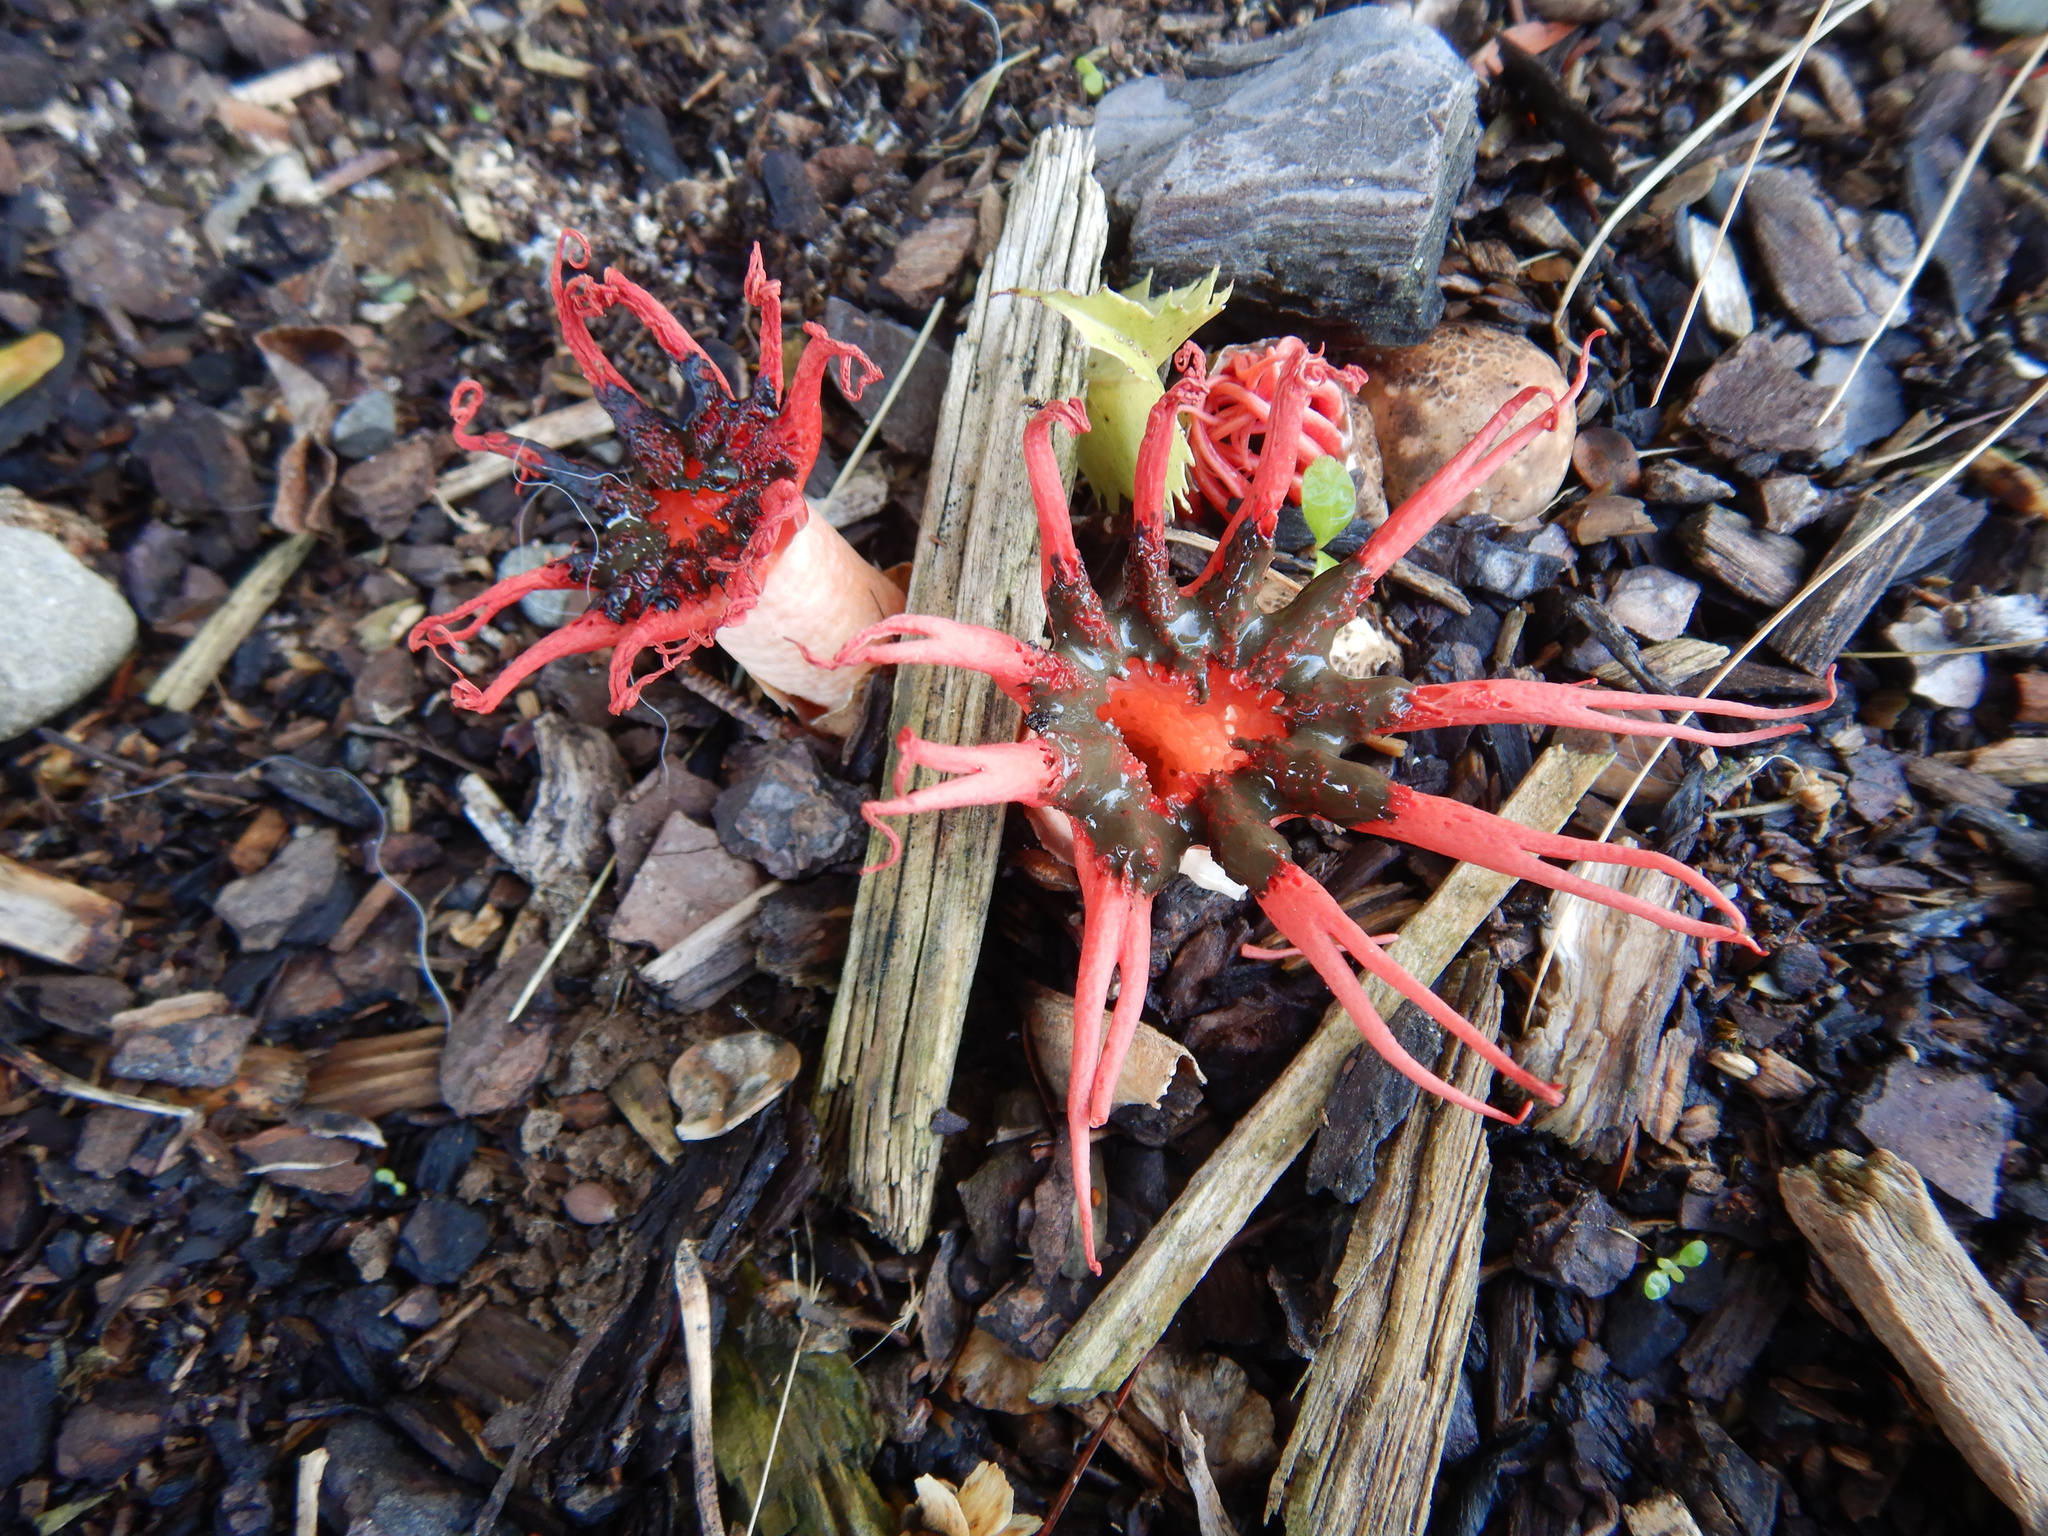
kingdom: Fungi
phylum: Basidiomycota
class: Agaricomycetes
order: Phallales
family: Phallaceae
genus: Aseroe
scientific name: Aseroe rubra
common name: Starfish fungus
